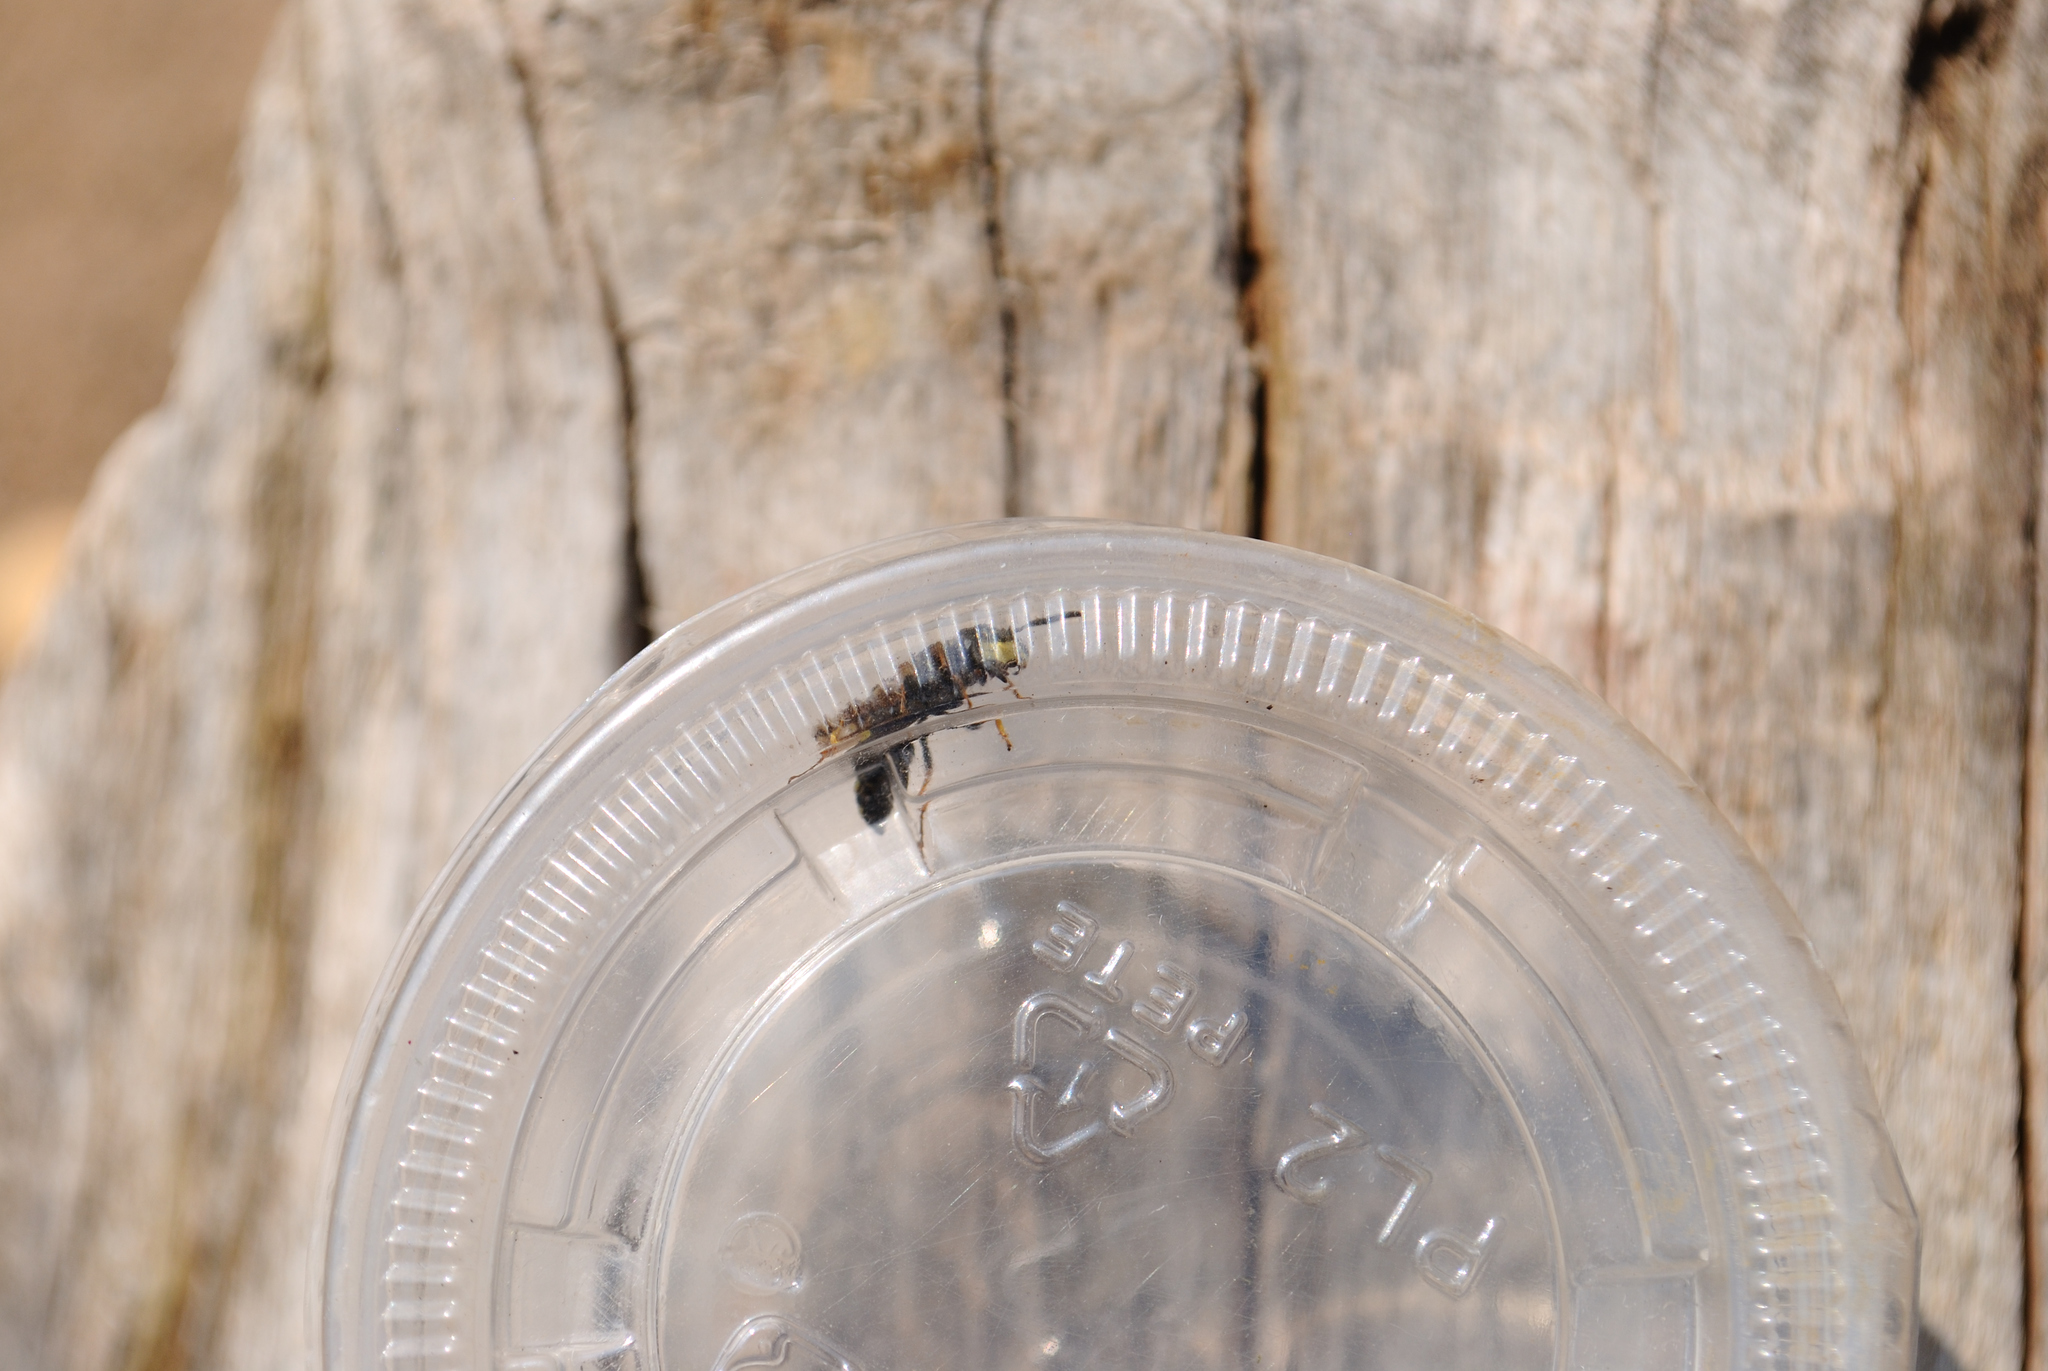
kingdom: Animalia
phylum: Arthropoda
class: Insecta
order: Hymenoptera
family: Crabronidae
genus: Philanthus
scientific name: Philanthus gibbosus
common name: Humped beewolf
